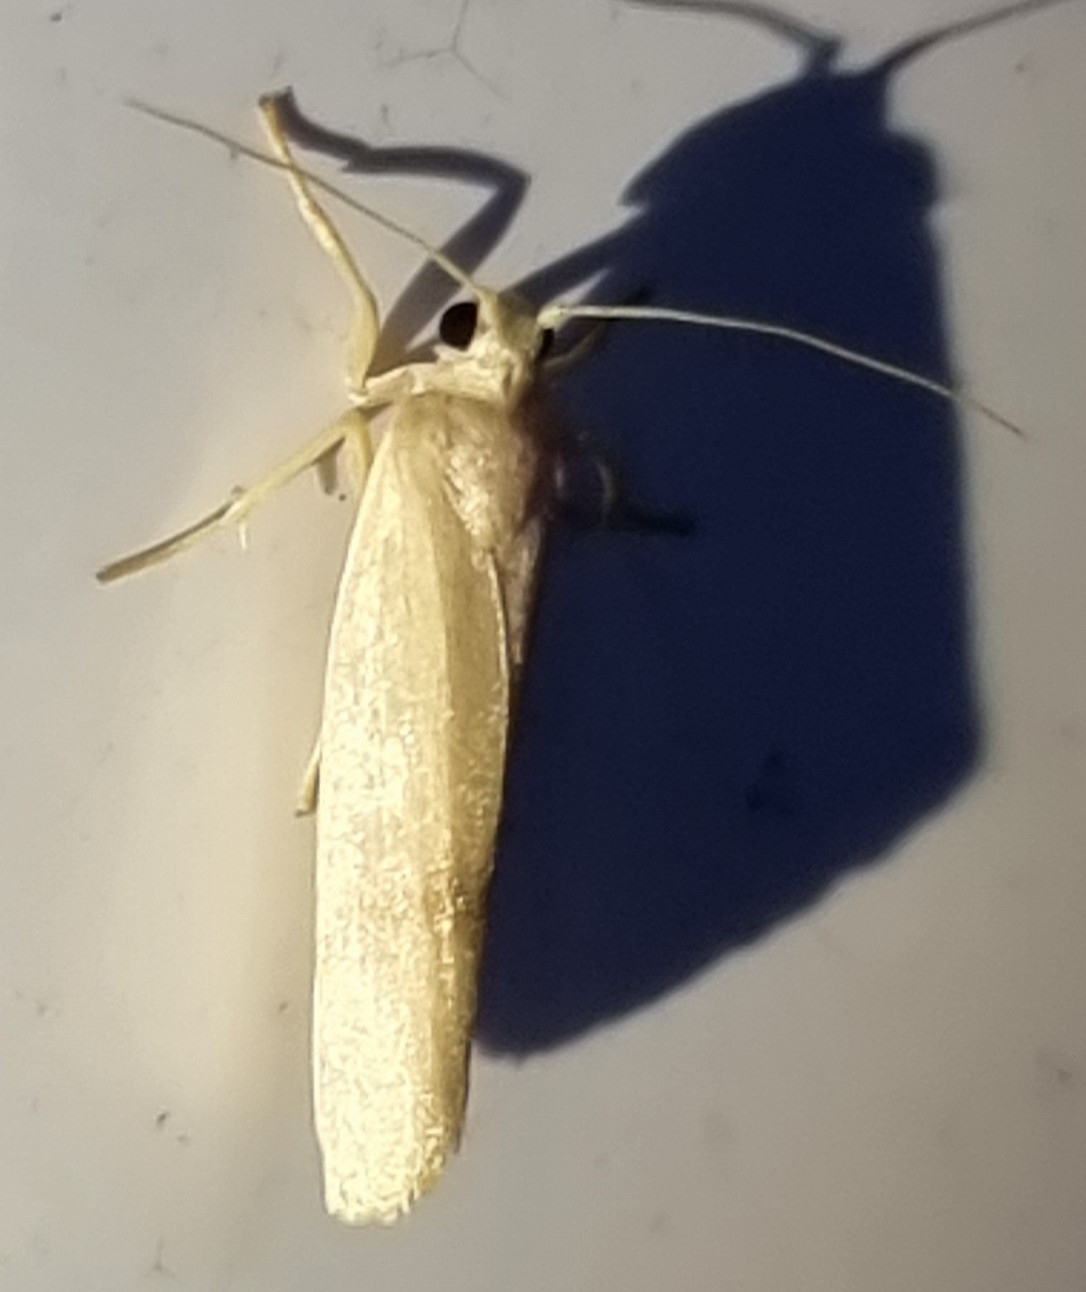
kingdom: Animalia
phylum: Arthropoda
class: Insecta
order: Lepidoptera
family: Erebidae
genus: Notata
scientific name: Notata modicus
